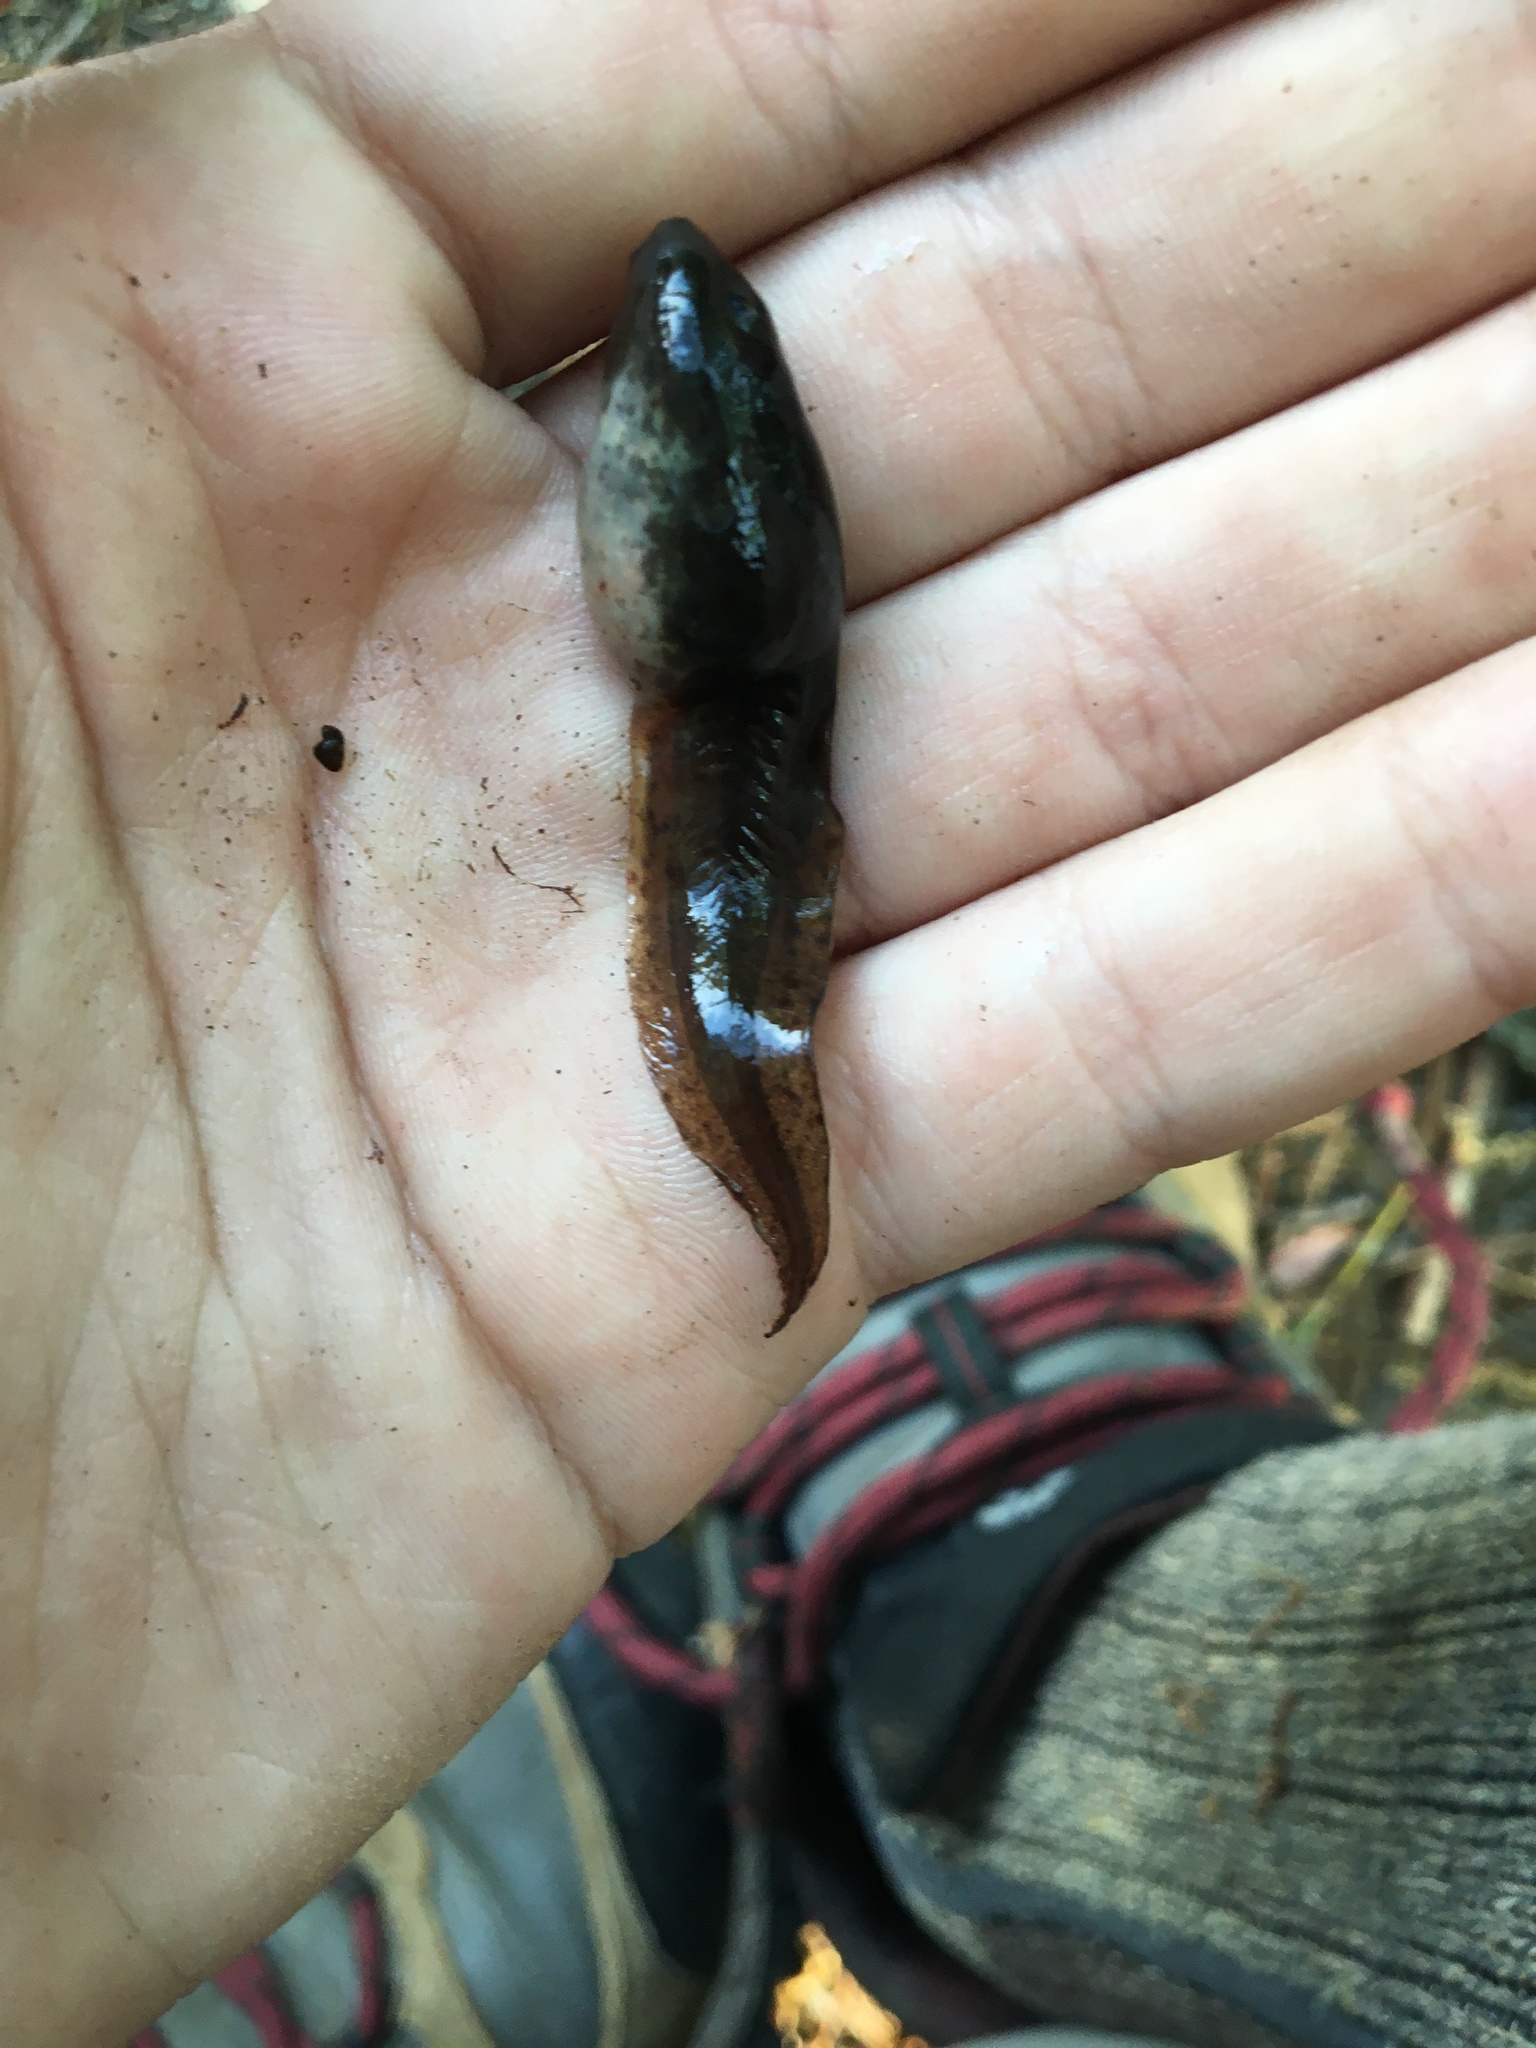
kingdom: Animalia
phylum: Chordata
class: Amphibia
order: Anura
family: Ranidae
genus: Lithobates
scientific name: Lithobates catesbeianus
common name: American bullfrog
